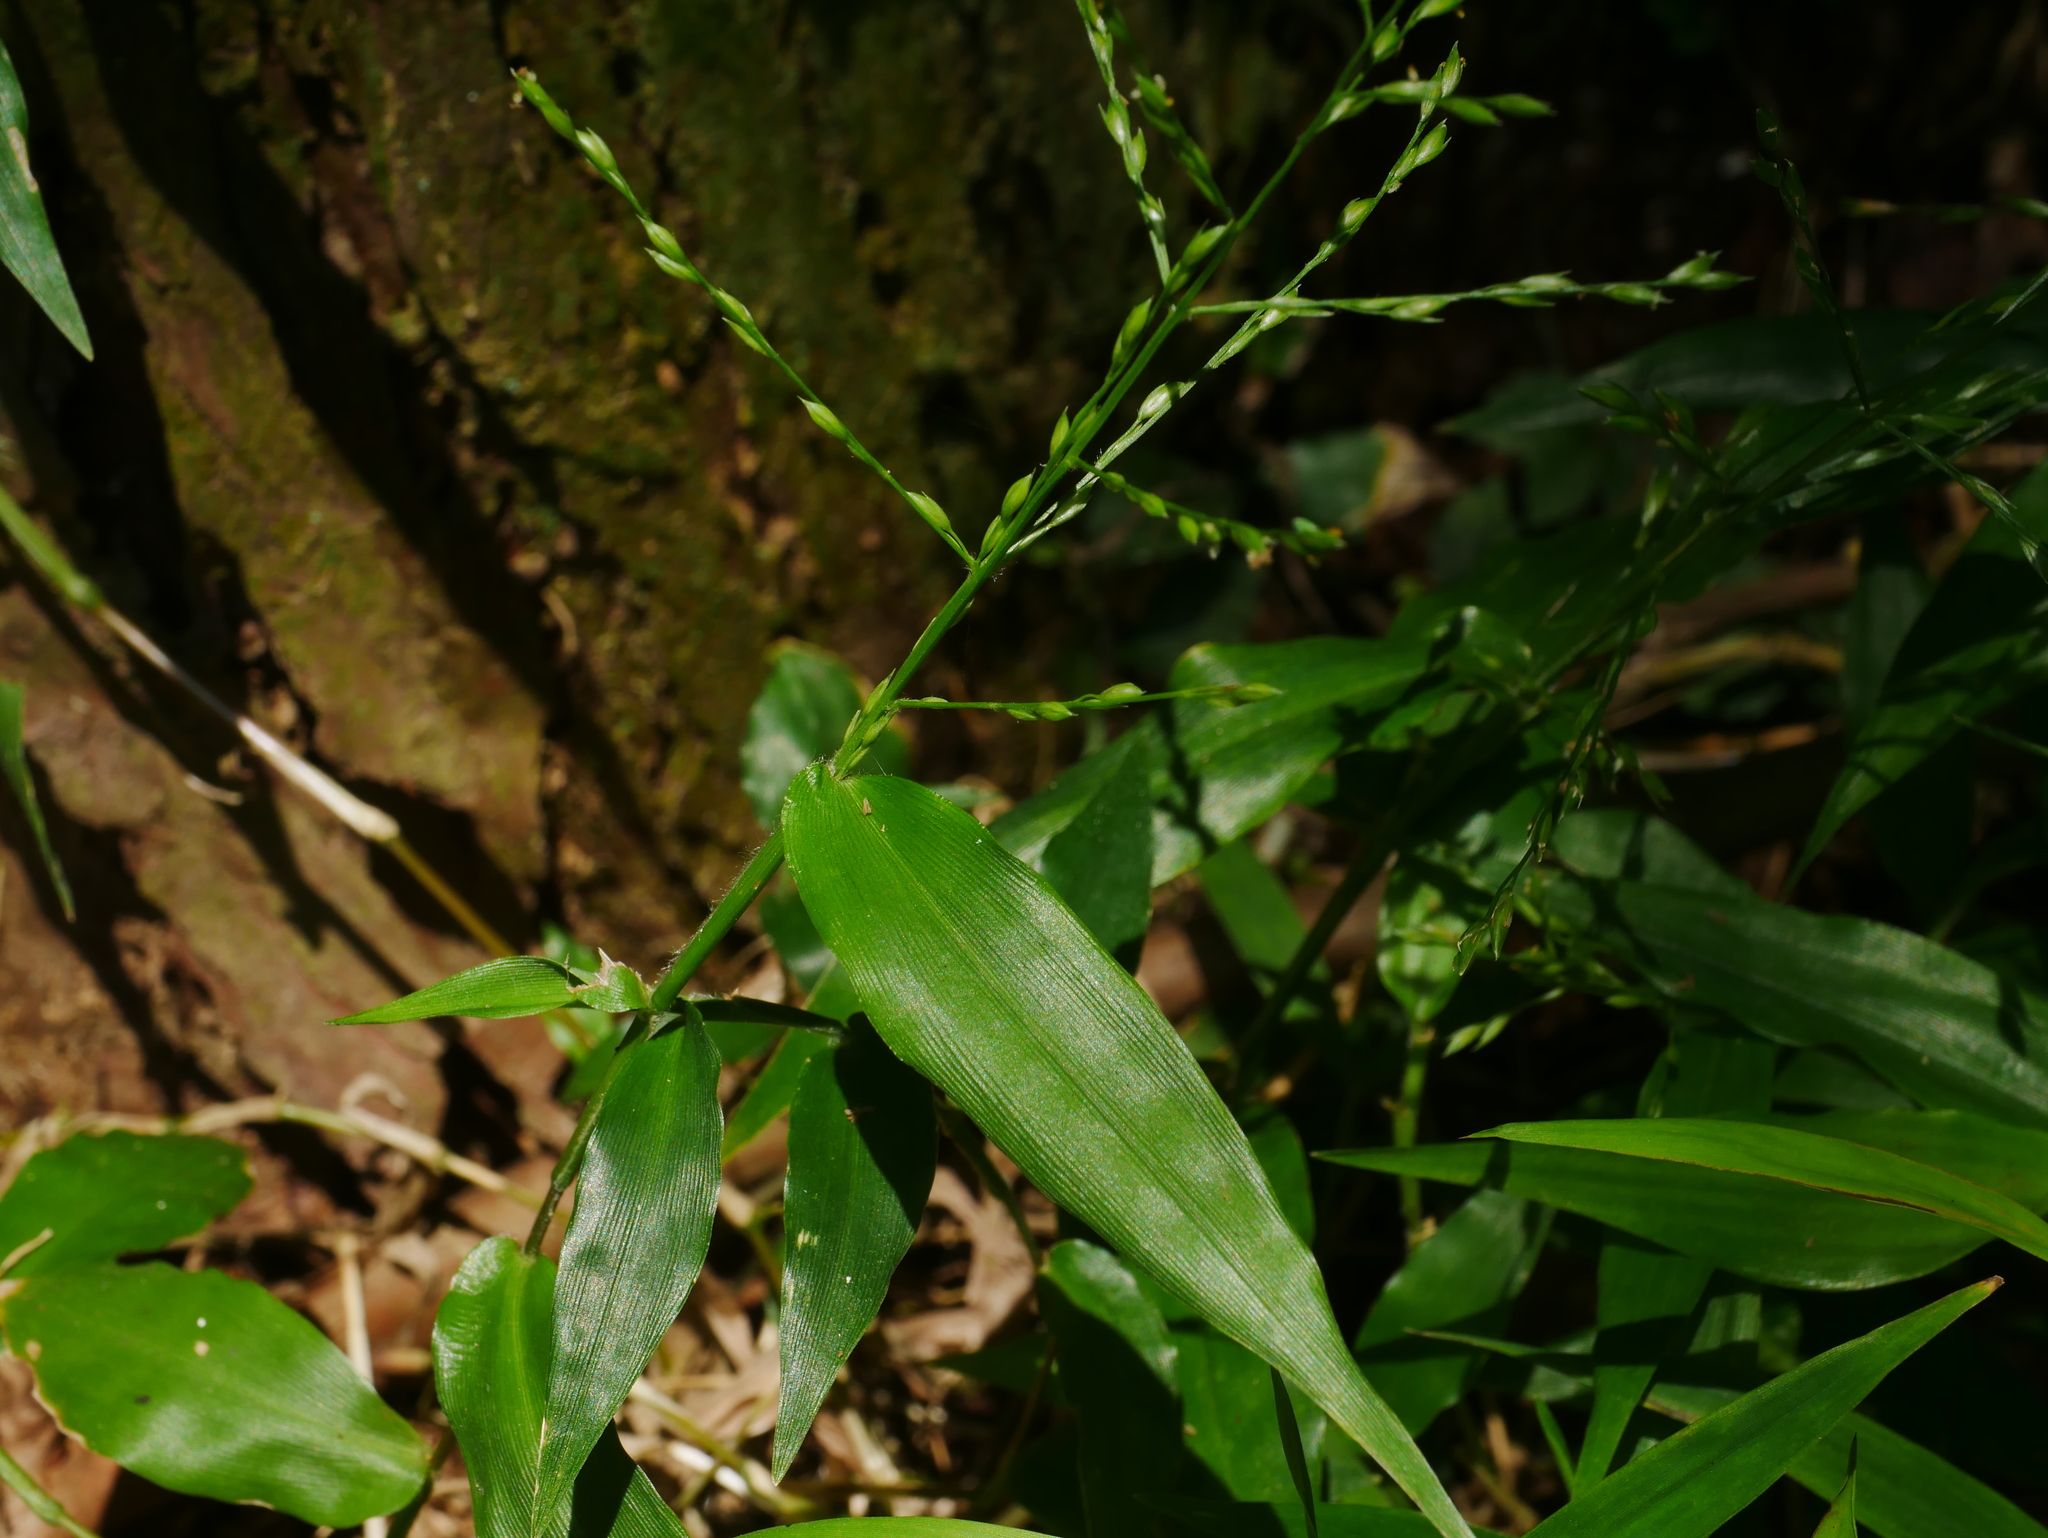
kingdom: Plantae
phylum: Tracheophyta
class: Liliopsida
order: Poales
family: Poaceae
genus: Ichnanthus
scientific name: Ichnanthus pallens
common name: Water grass
